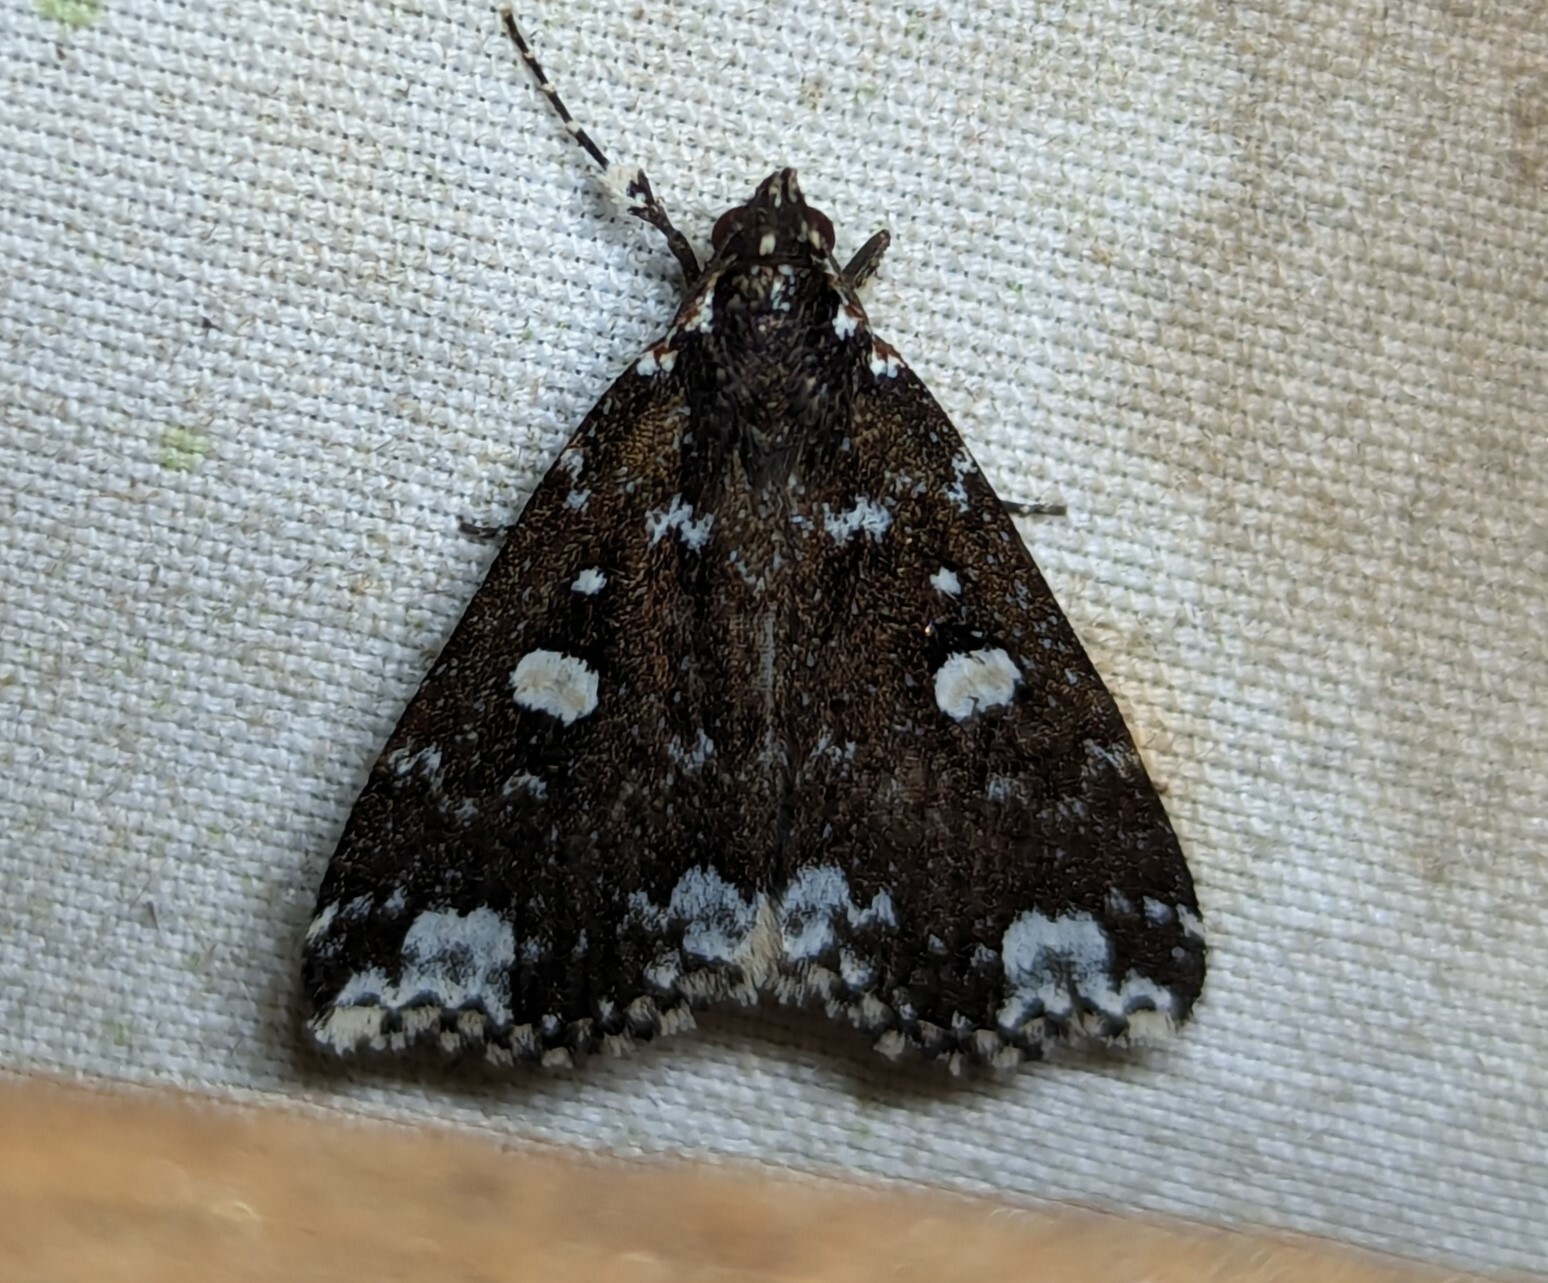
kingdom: Animalia
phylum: Arthropoda
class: Insecta
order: Lepidoptera
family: Erebidae
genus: Rejectaria
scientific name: Rejectaria amicalis
